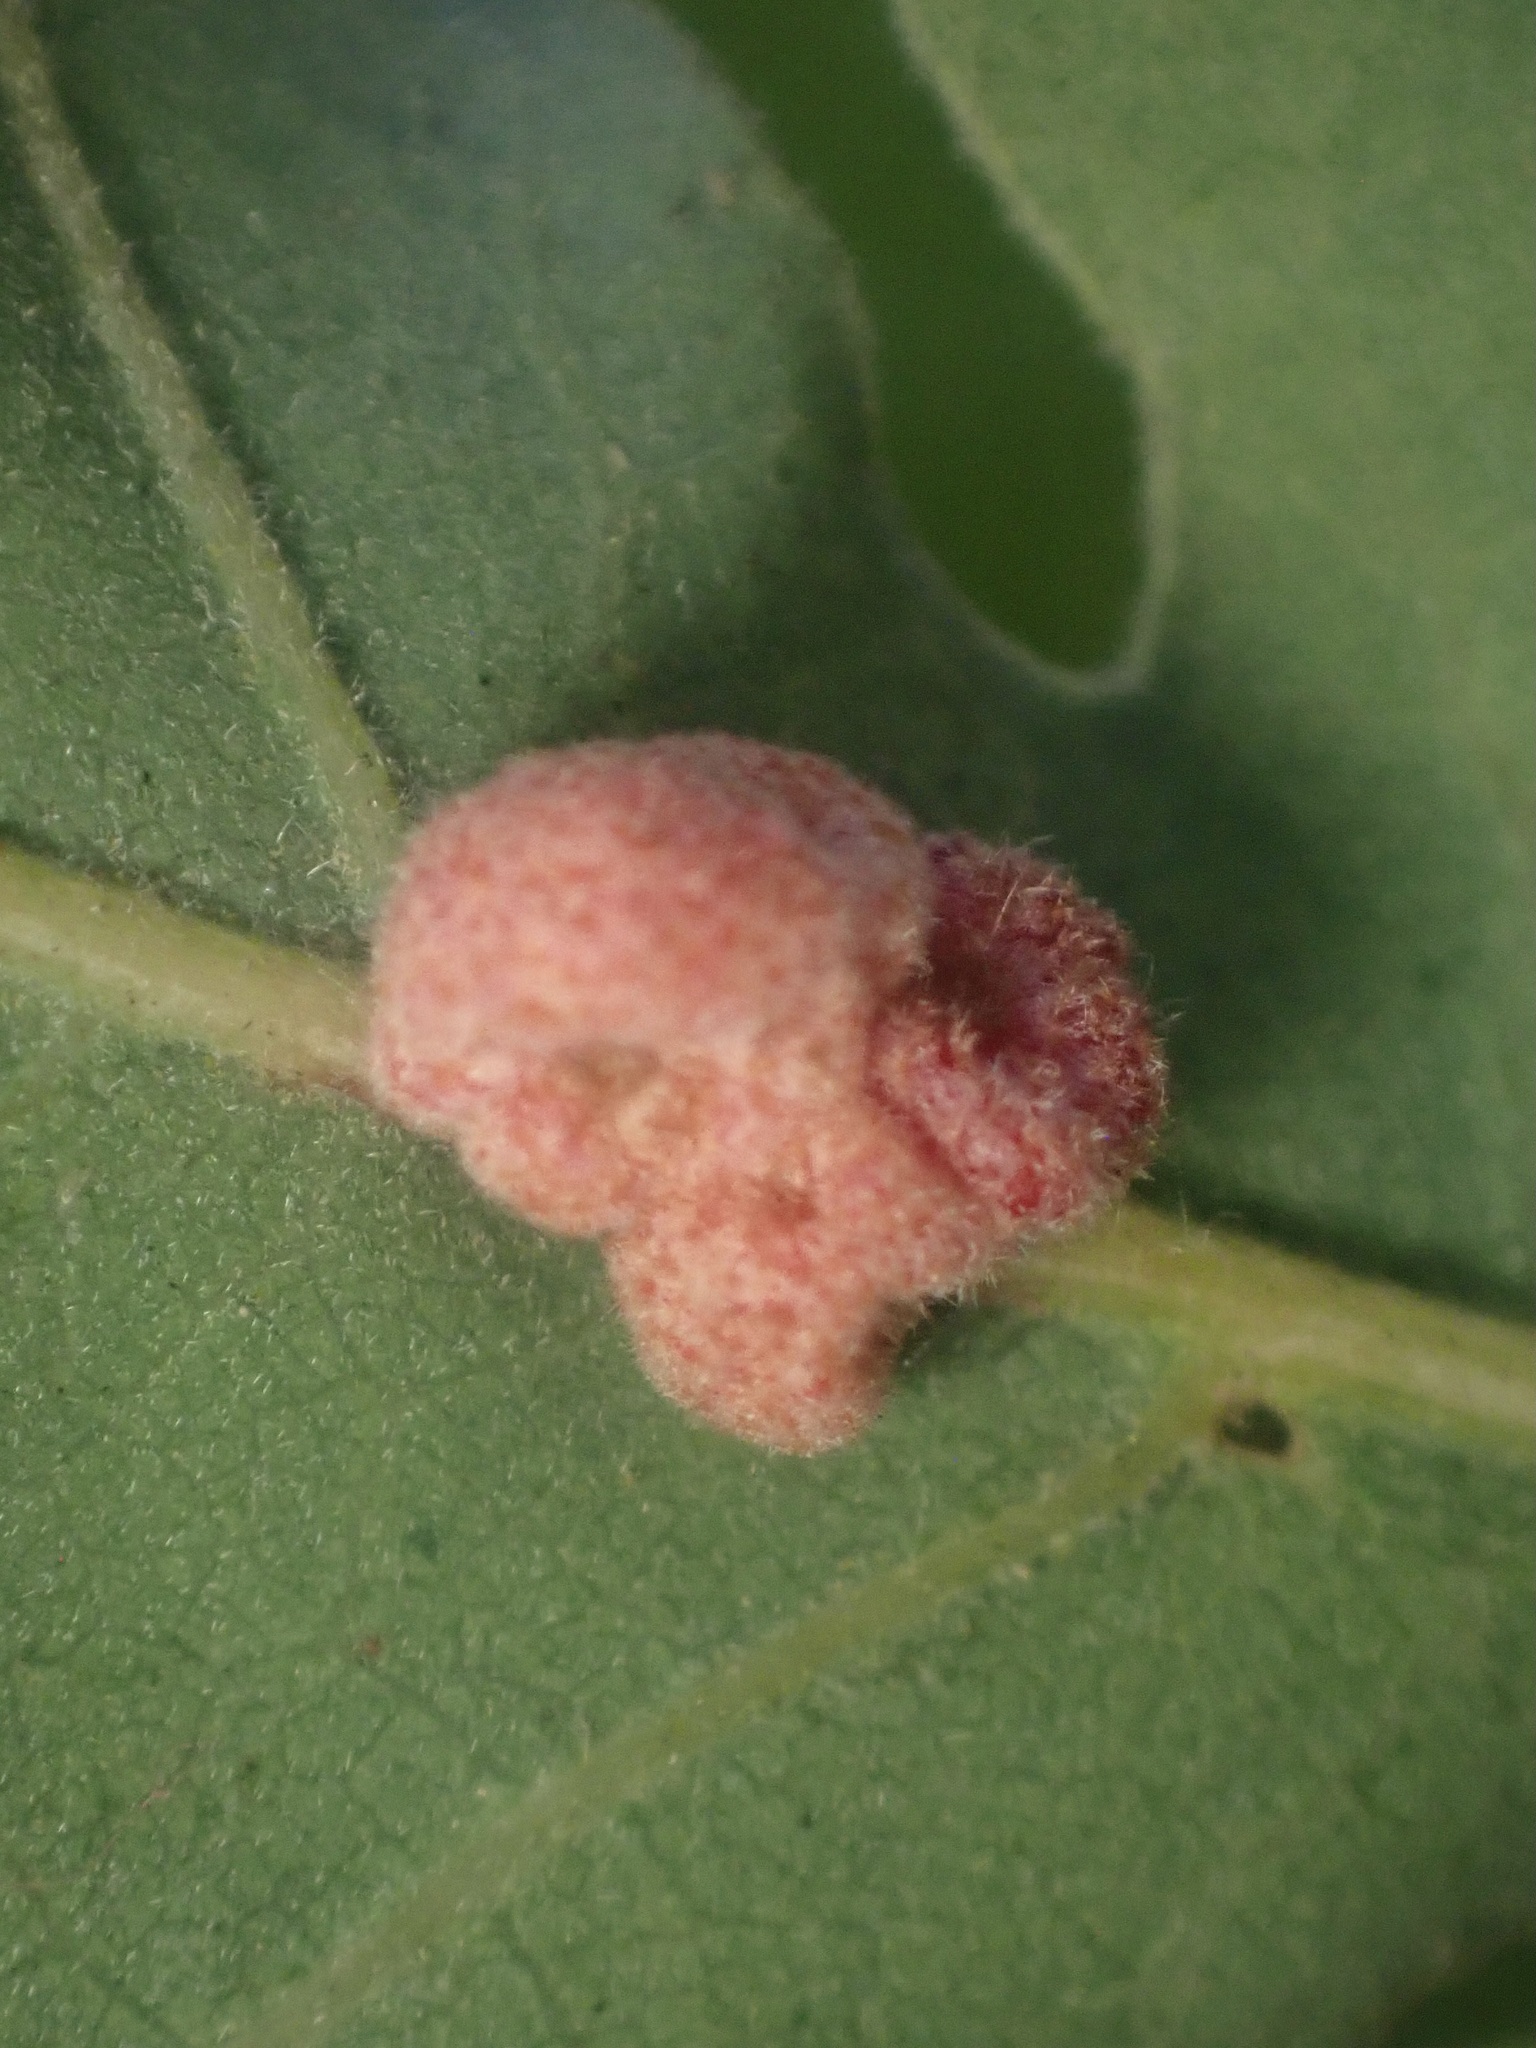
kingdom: Animalia
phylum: Arthropoda
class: Insecta
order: Hymenoptera
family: Cynipidae
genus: Andricus
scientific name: Andricus
